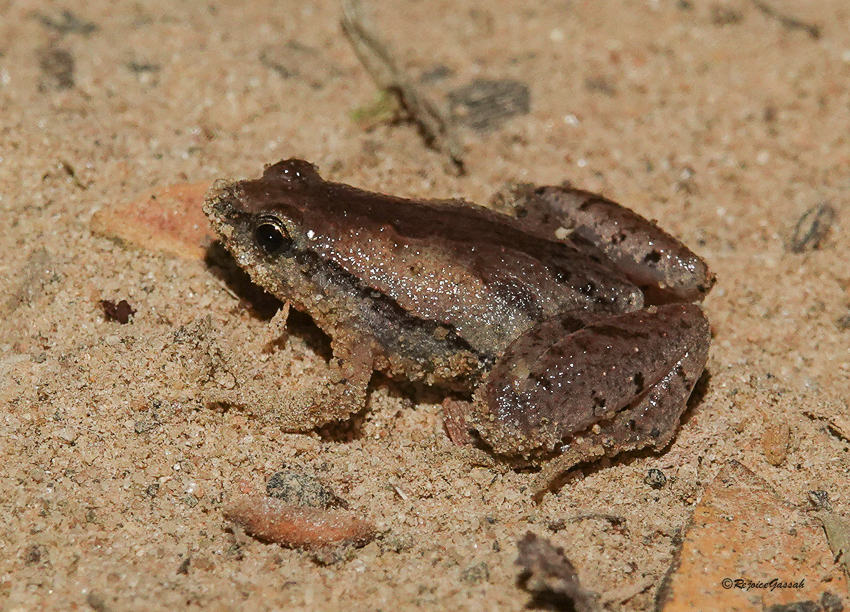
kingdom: Animalia
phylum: Chordata
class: Amphibia
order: Anura
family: Microhylidae
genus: Microhyla
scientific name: Microhyla mymensinghensis
